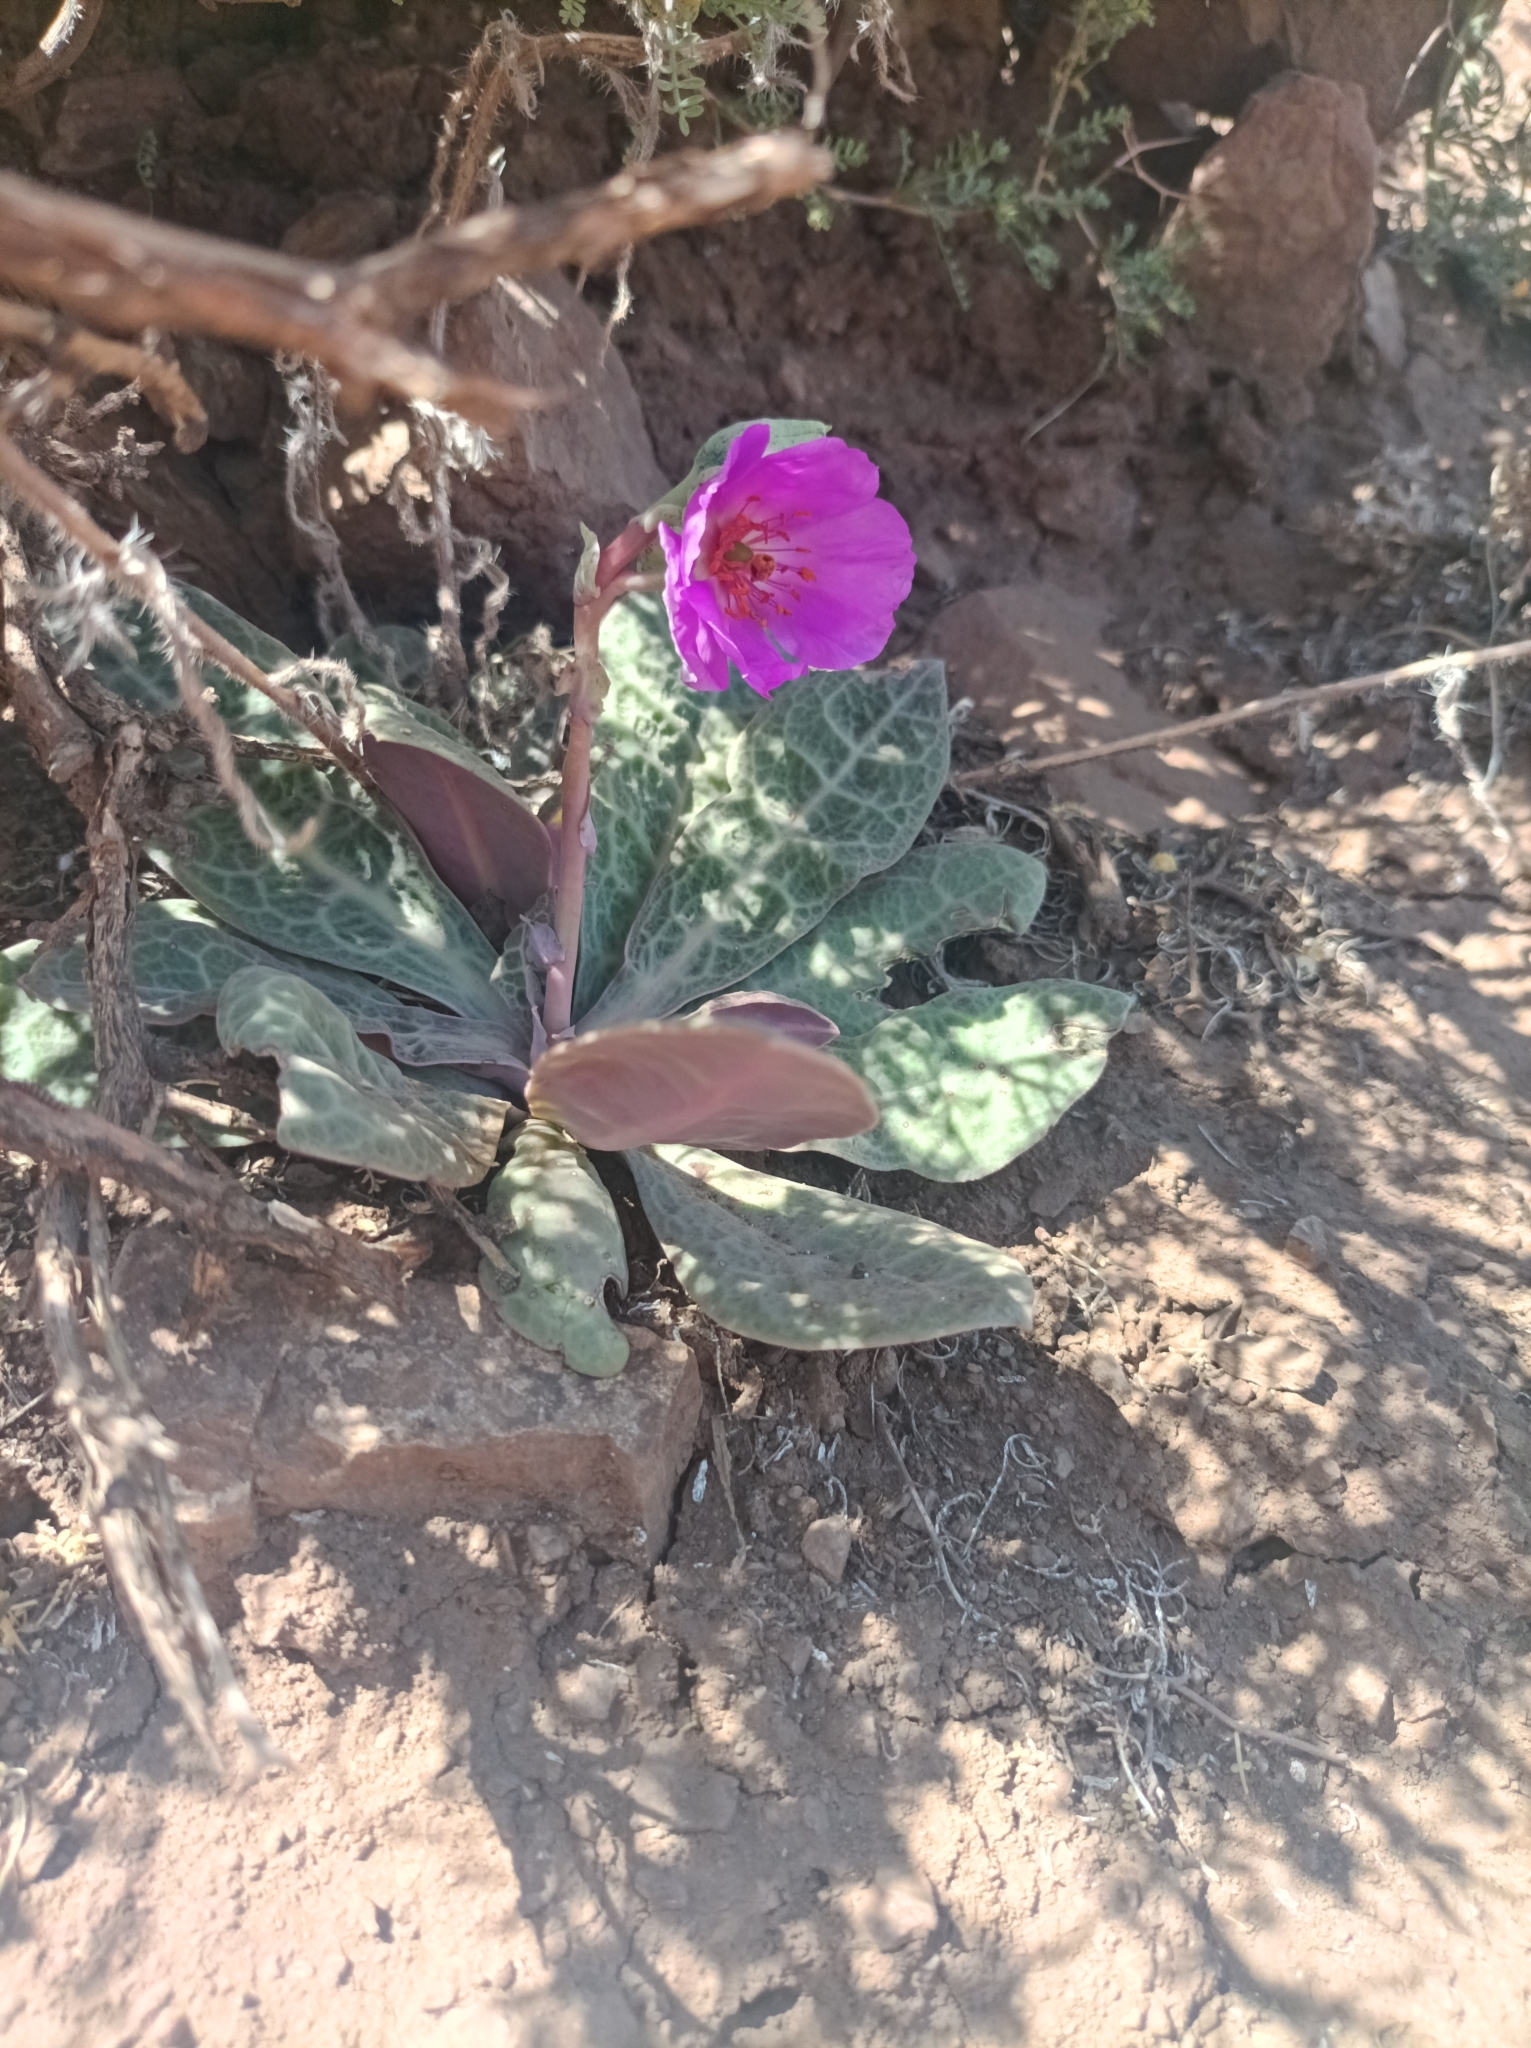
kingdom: Plantae
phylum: Tracheophyta
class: Magnoliopsida
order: Caryophyllales
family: Montiaceae
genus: Cistanthe
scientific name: Cistanthe grandiflora
